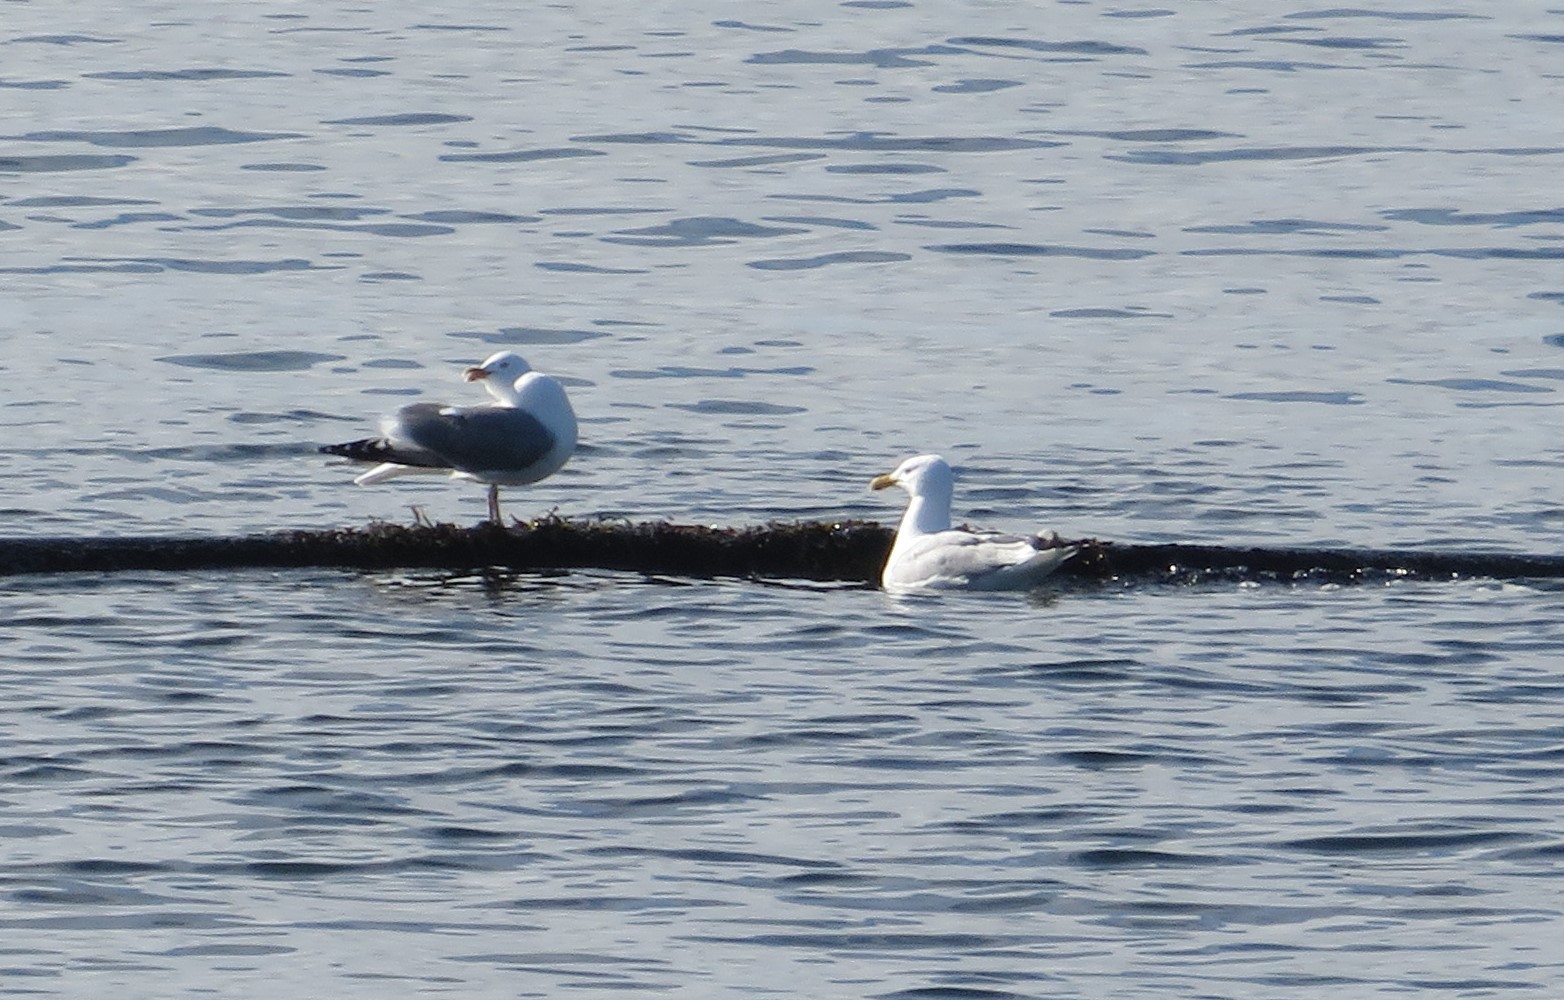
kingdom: Animalia
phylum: Chordata
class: Aves
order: Charadriiformes
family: Laridae
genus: Larus
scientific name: Larus argentatus
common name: Herring gull
